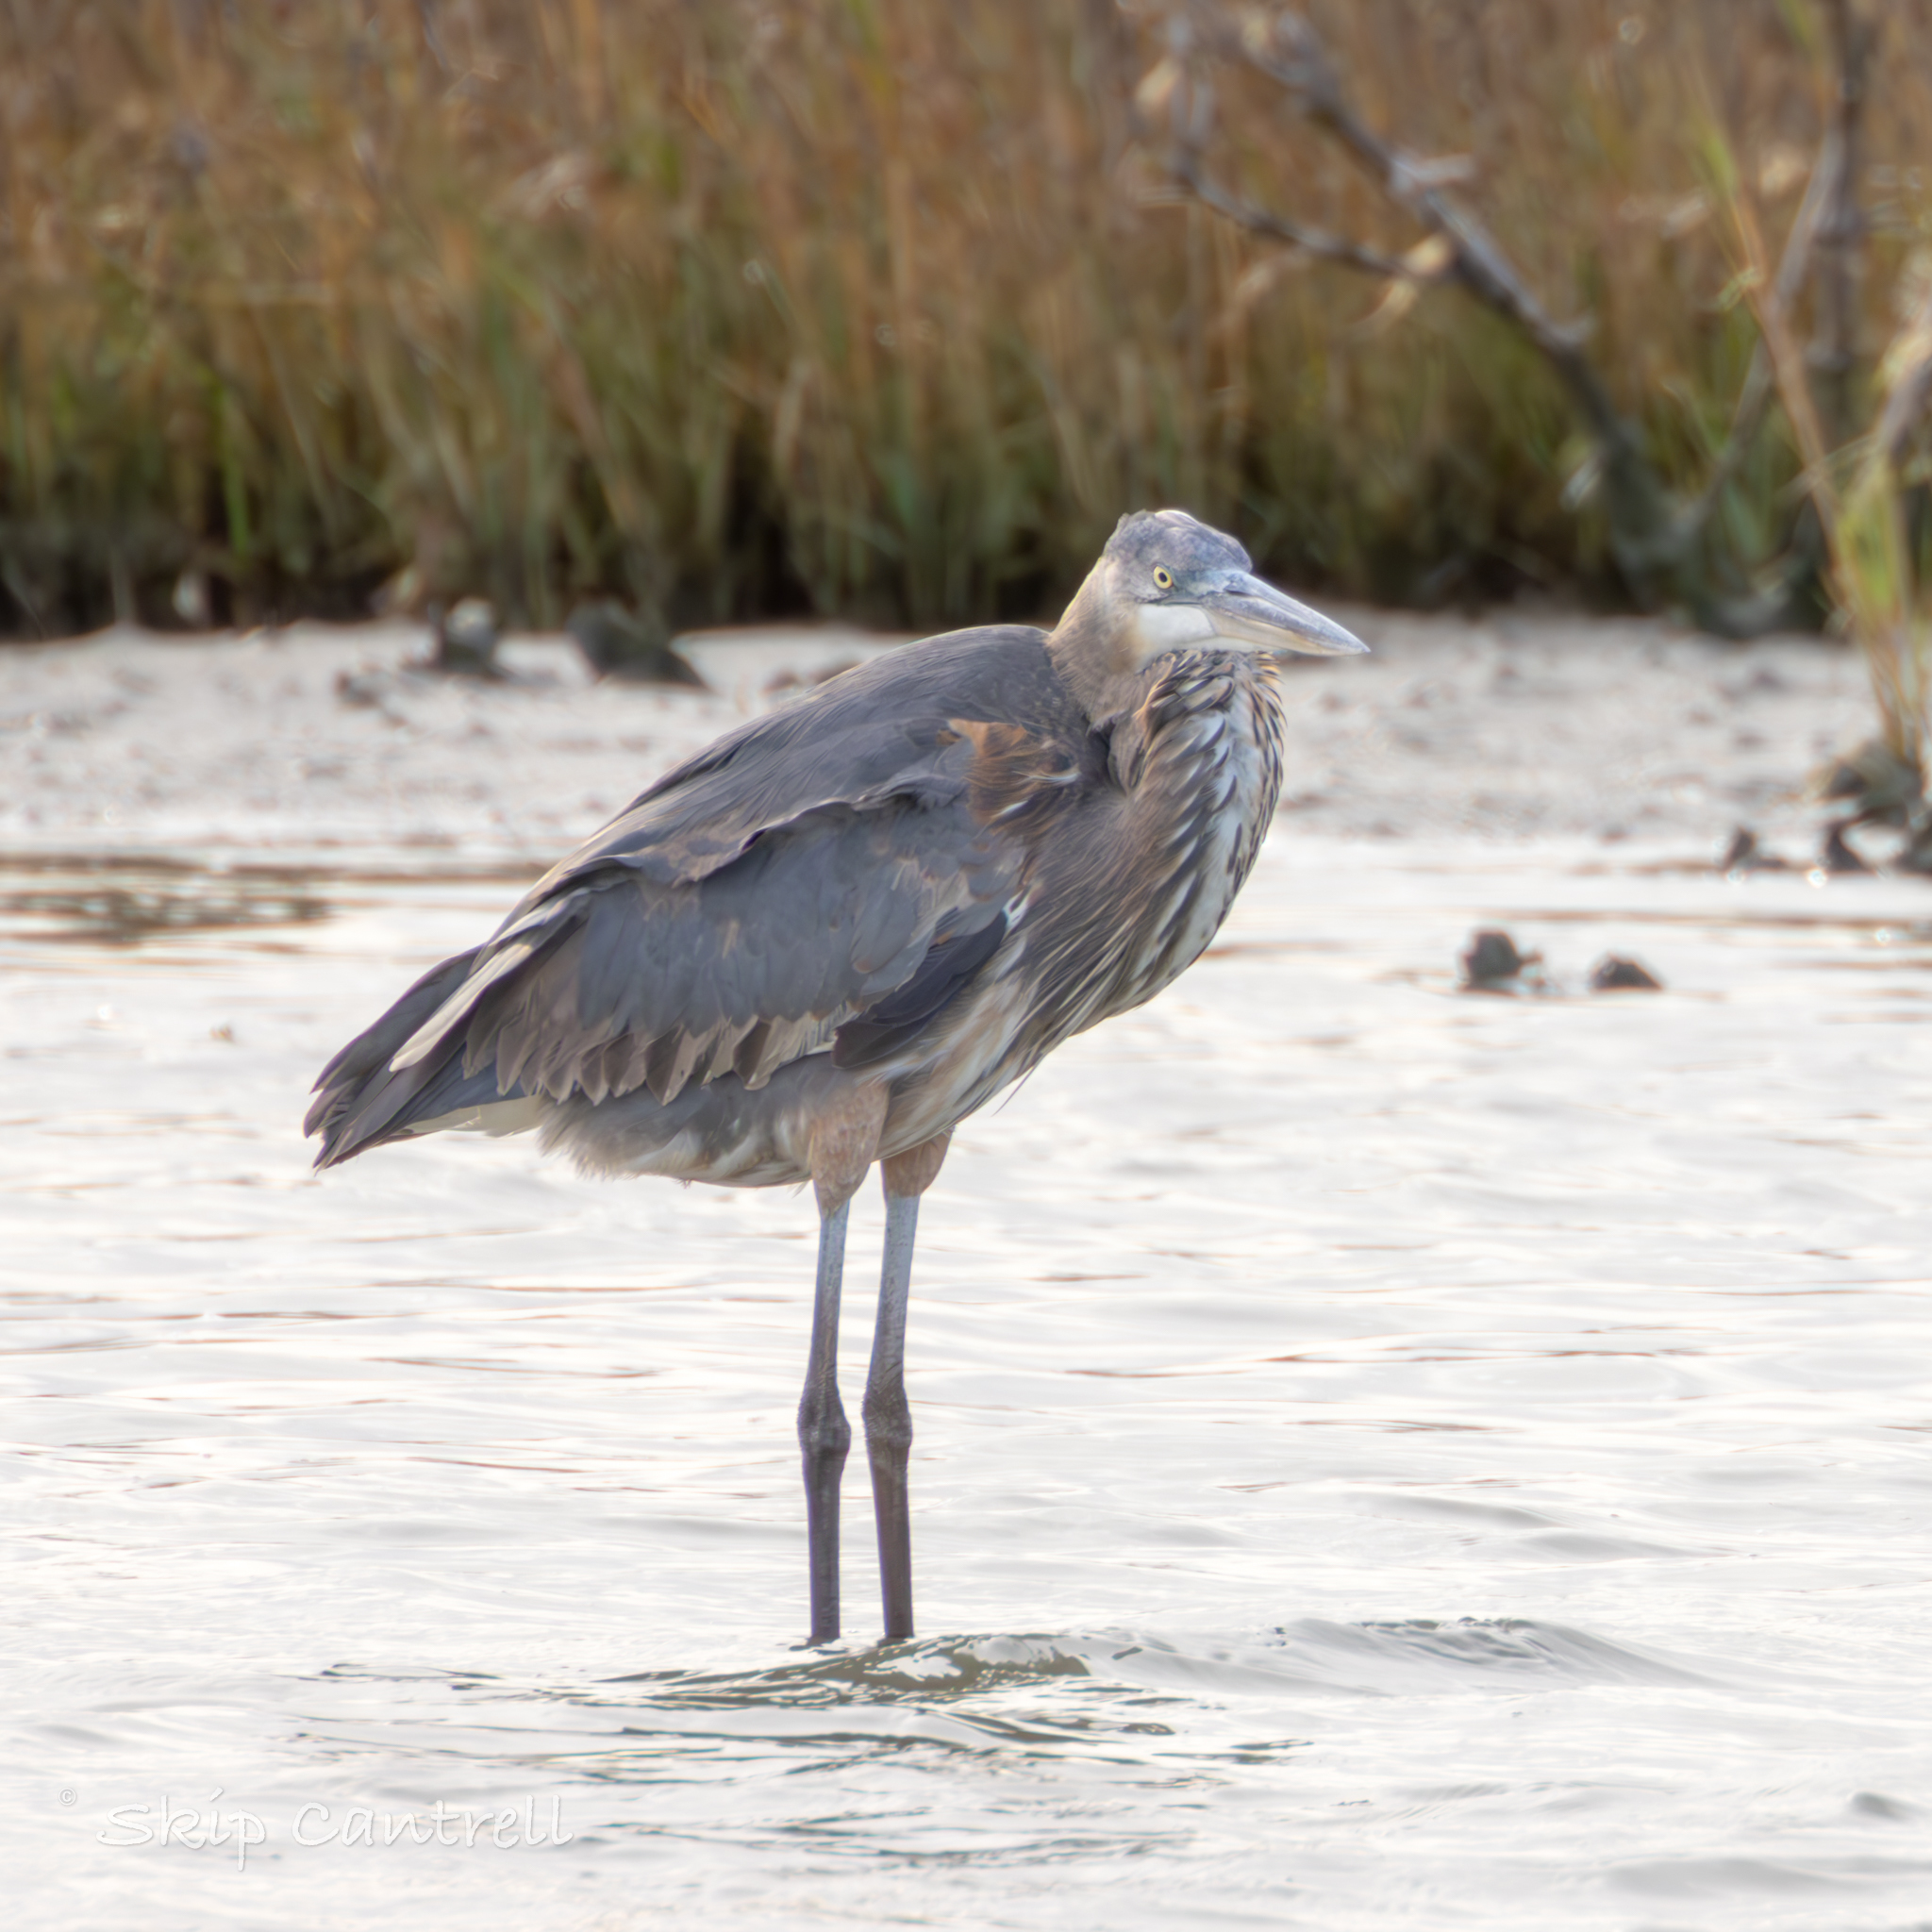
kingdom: Animalia
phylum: Chordata
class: Aves
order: Pelecaniformes
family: Ardeidae
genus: Ardea
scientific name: Ardea herodias
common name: Great blue heron
